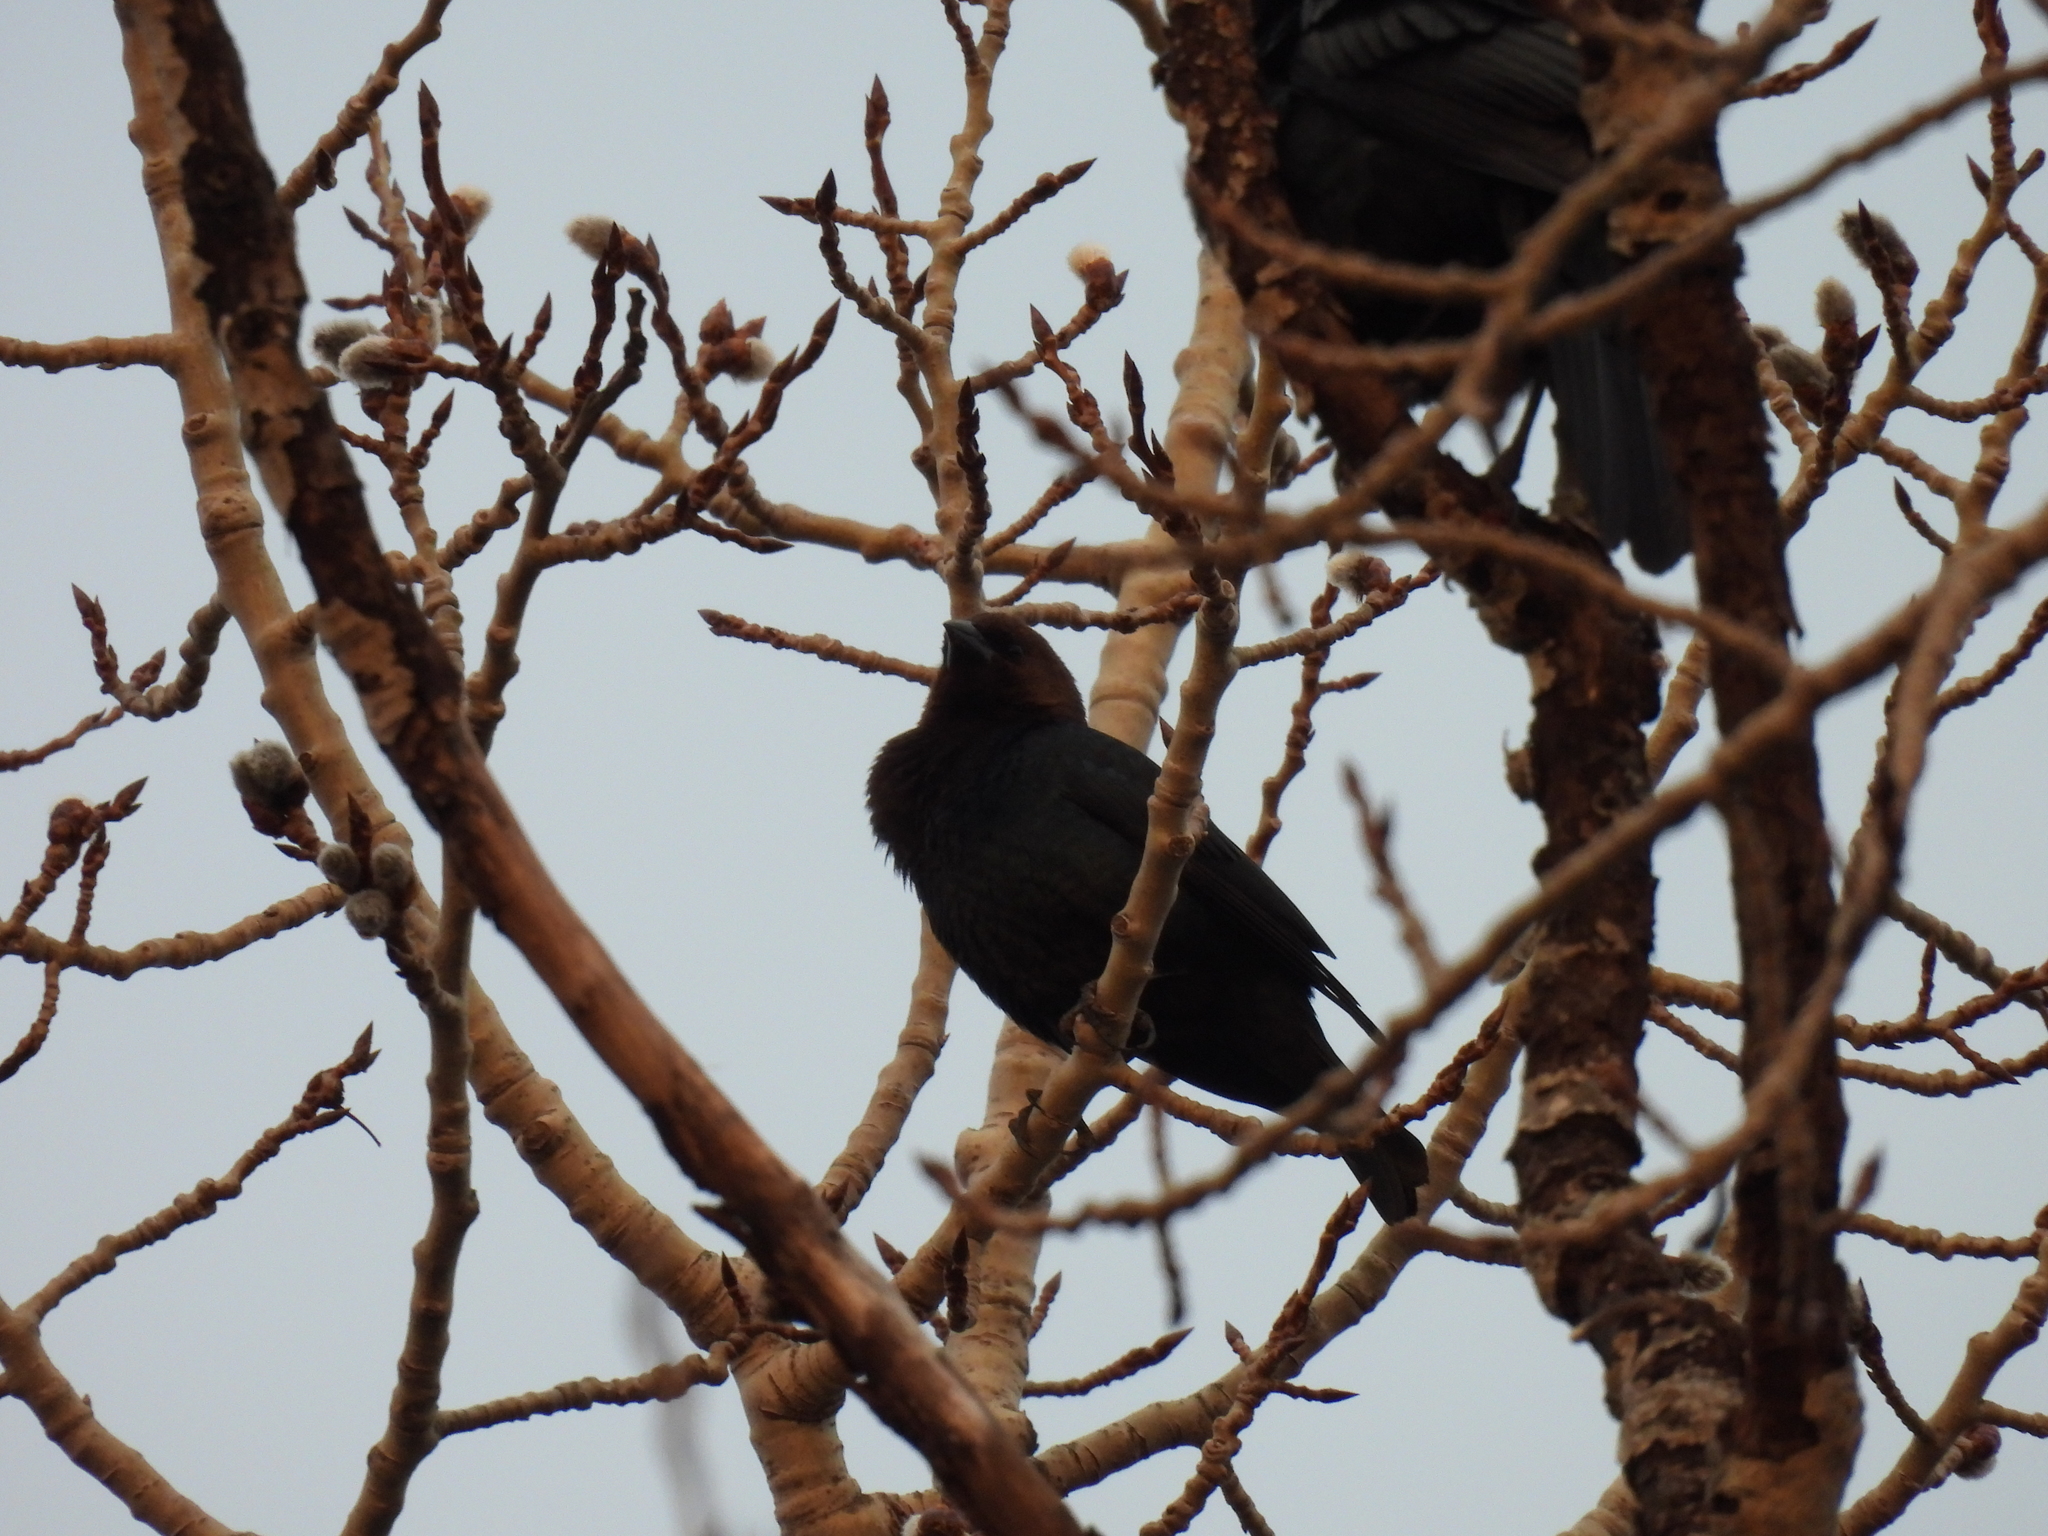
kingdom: Animalia
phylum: Chordata
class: Aves
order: Passeriformes
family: Icteridae
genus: Molothrus
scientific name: Molothrus ater
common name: Brown-headed cowbird
